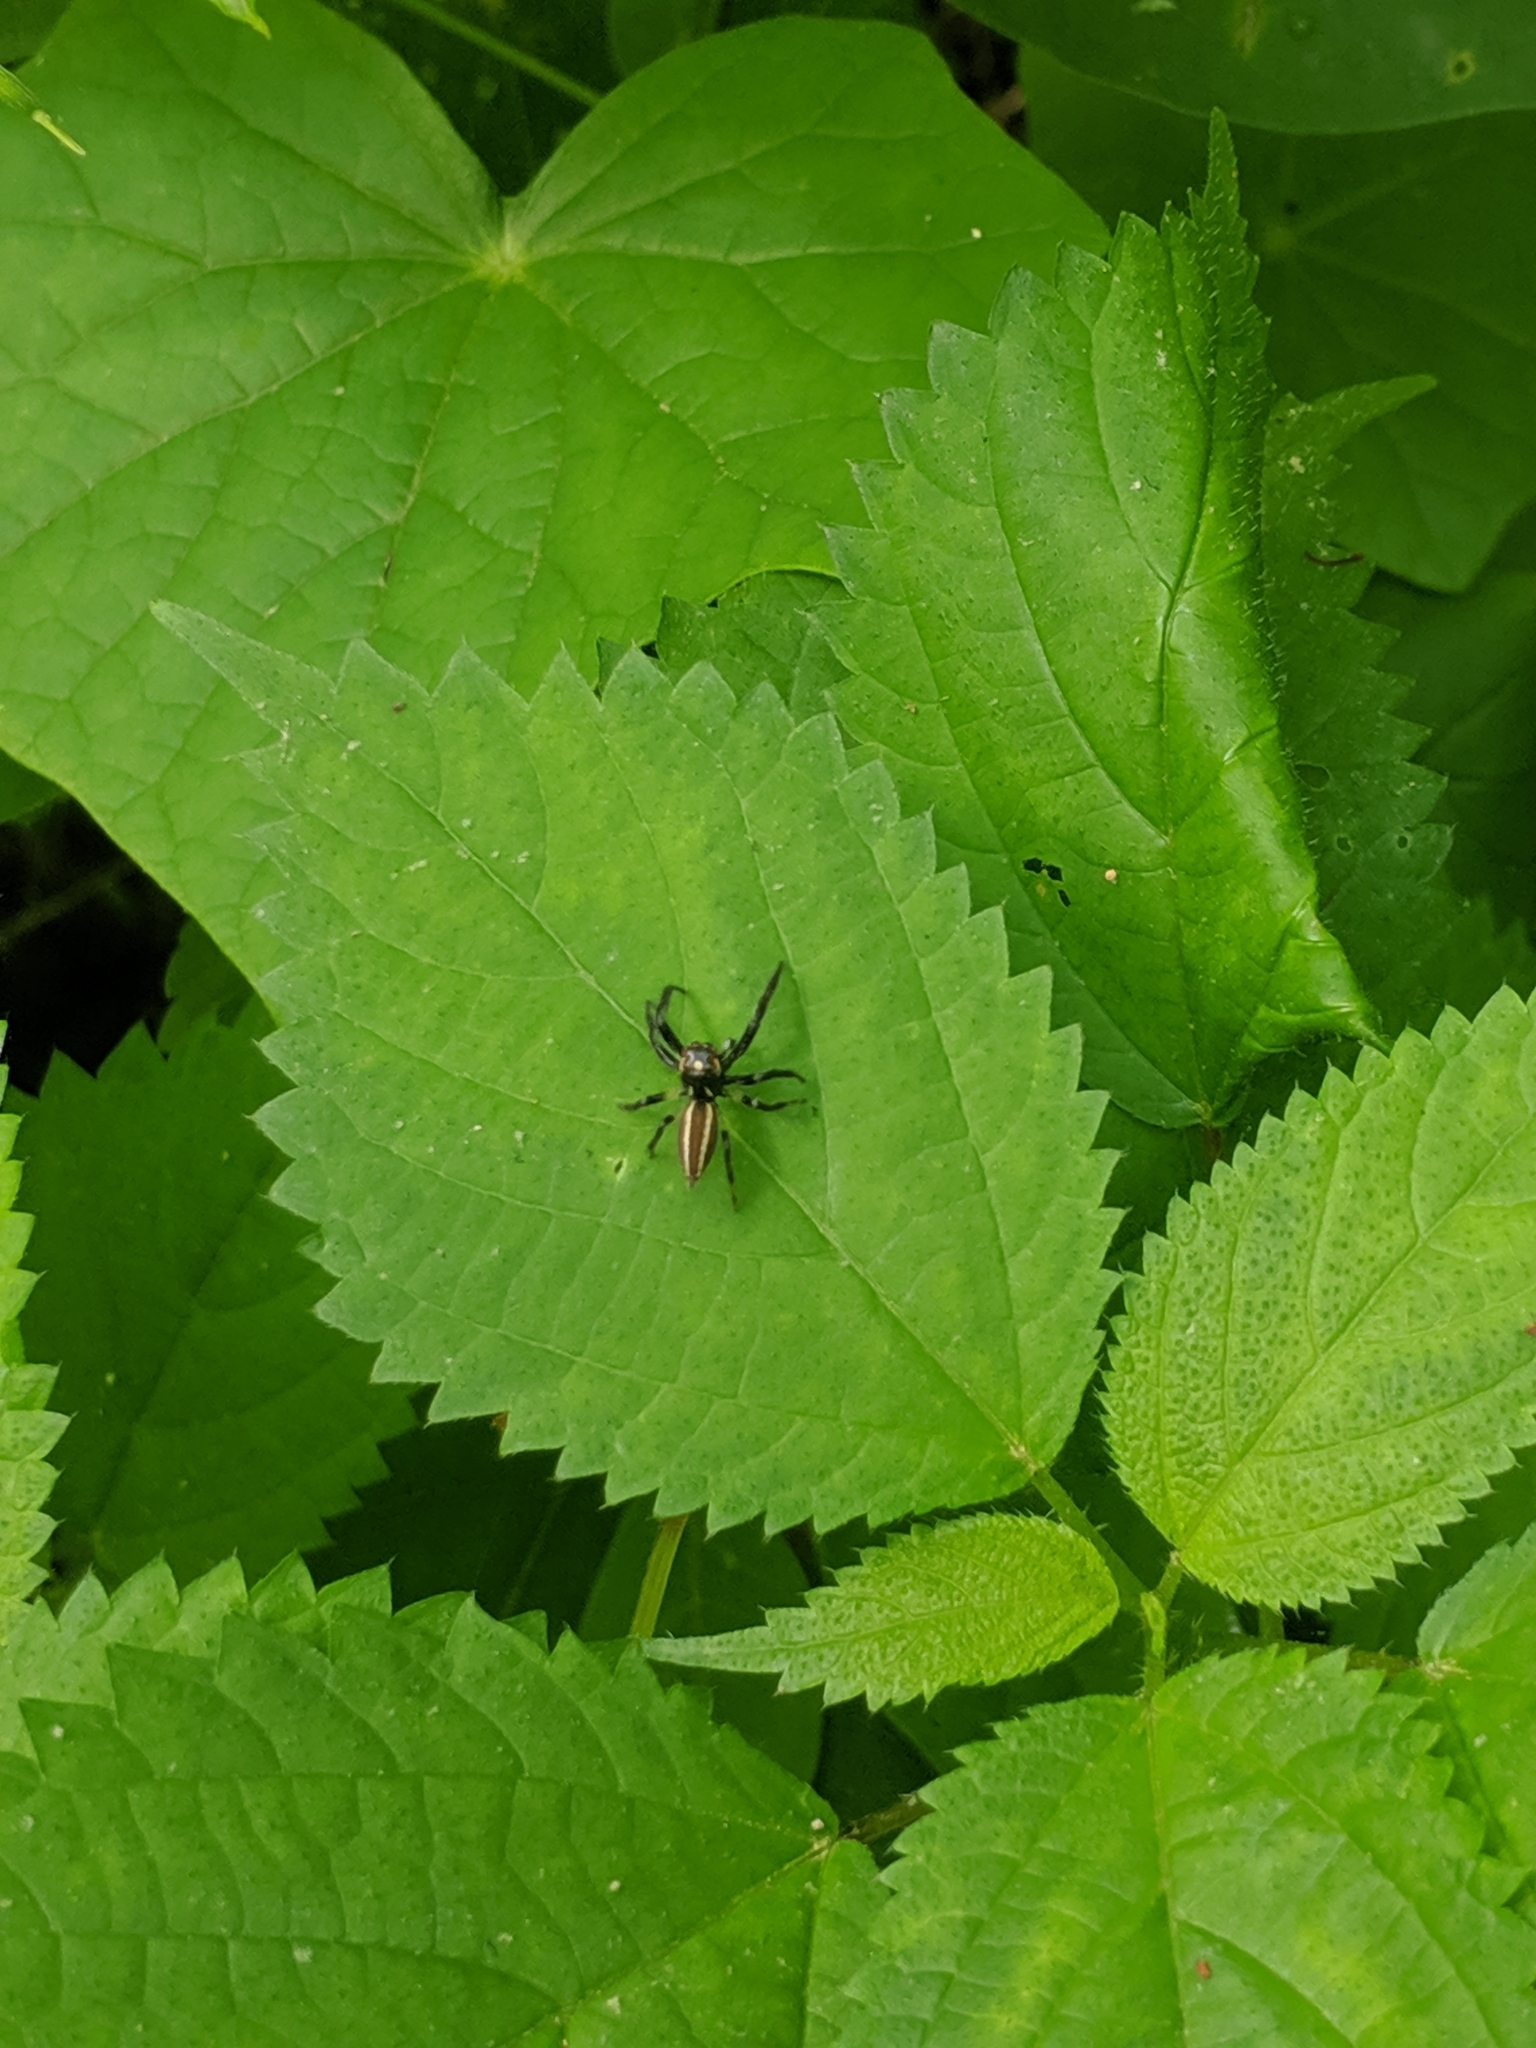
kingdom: Animalia
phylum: Arthropoda
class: Arachnida
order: Araneae
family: Salticidae
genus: Colonus
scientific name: Colonus sylvanus
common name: Jumping spiders
